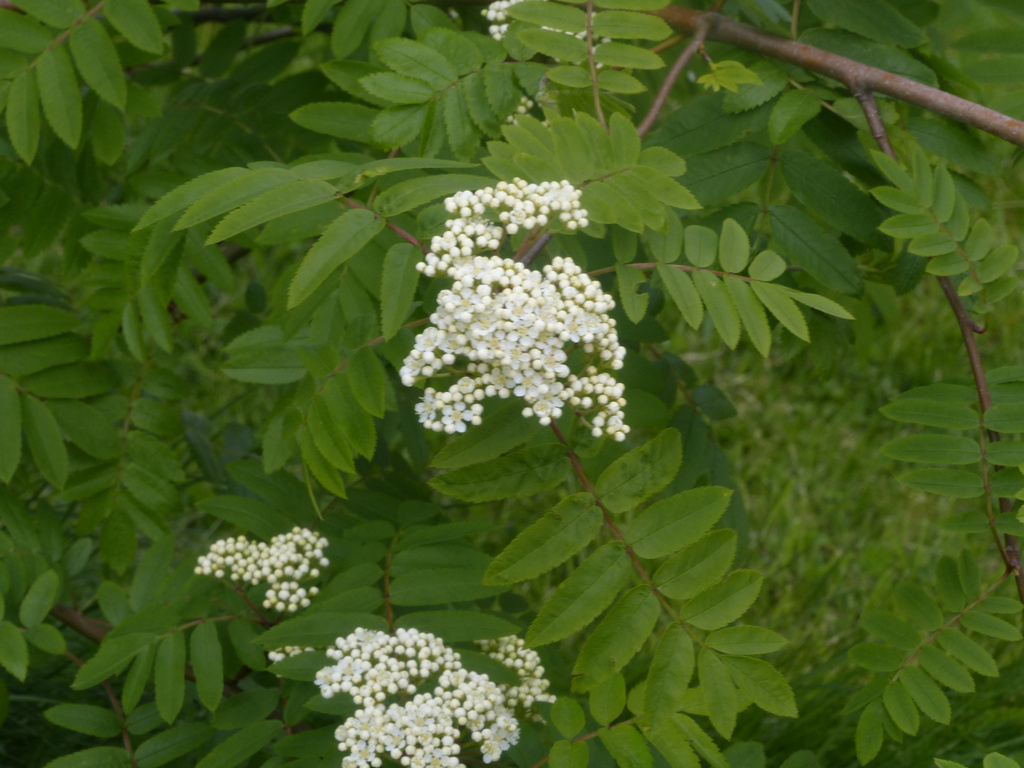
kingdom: Plantae
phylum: Tracheophyta
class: Magnoliopsida
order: Rosales
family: Rosaceae
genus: Sorbus
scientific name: Sorbus aucuparia
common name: Rowan
